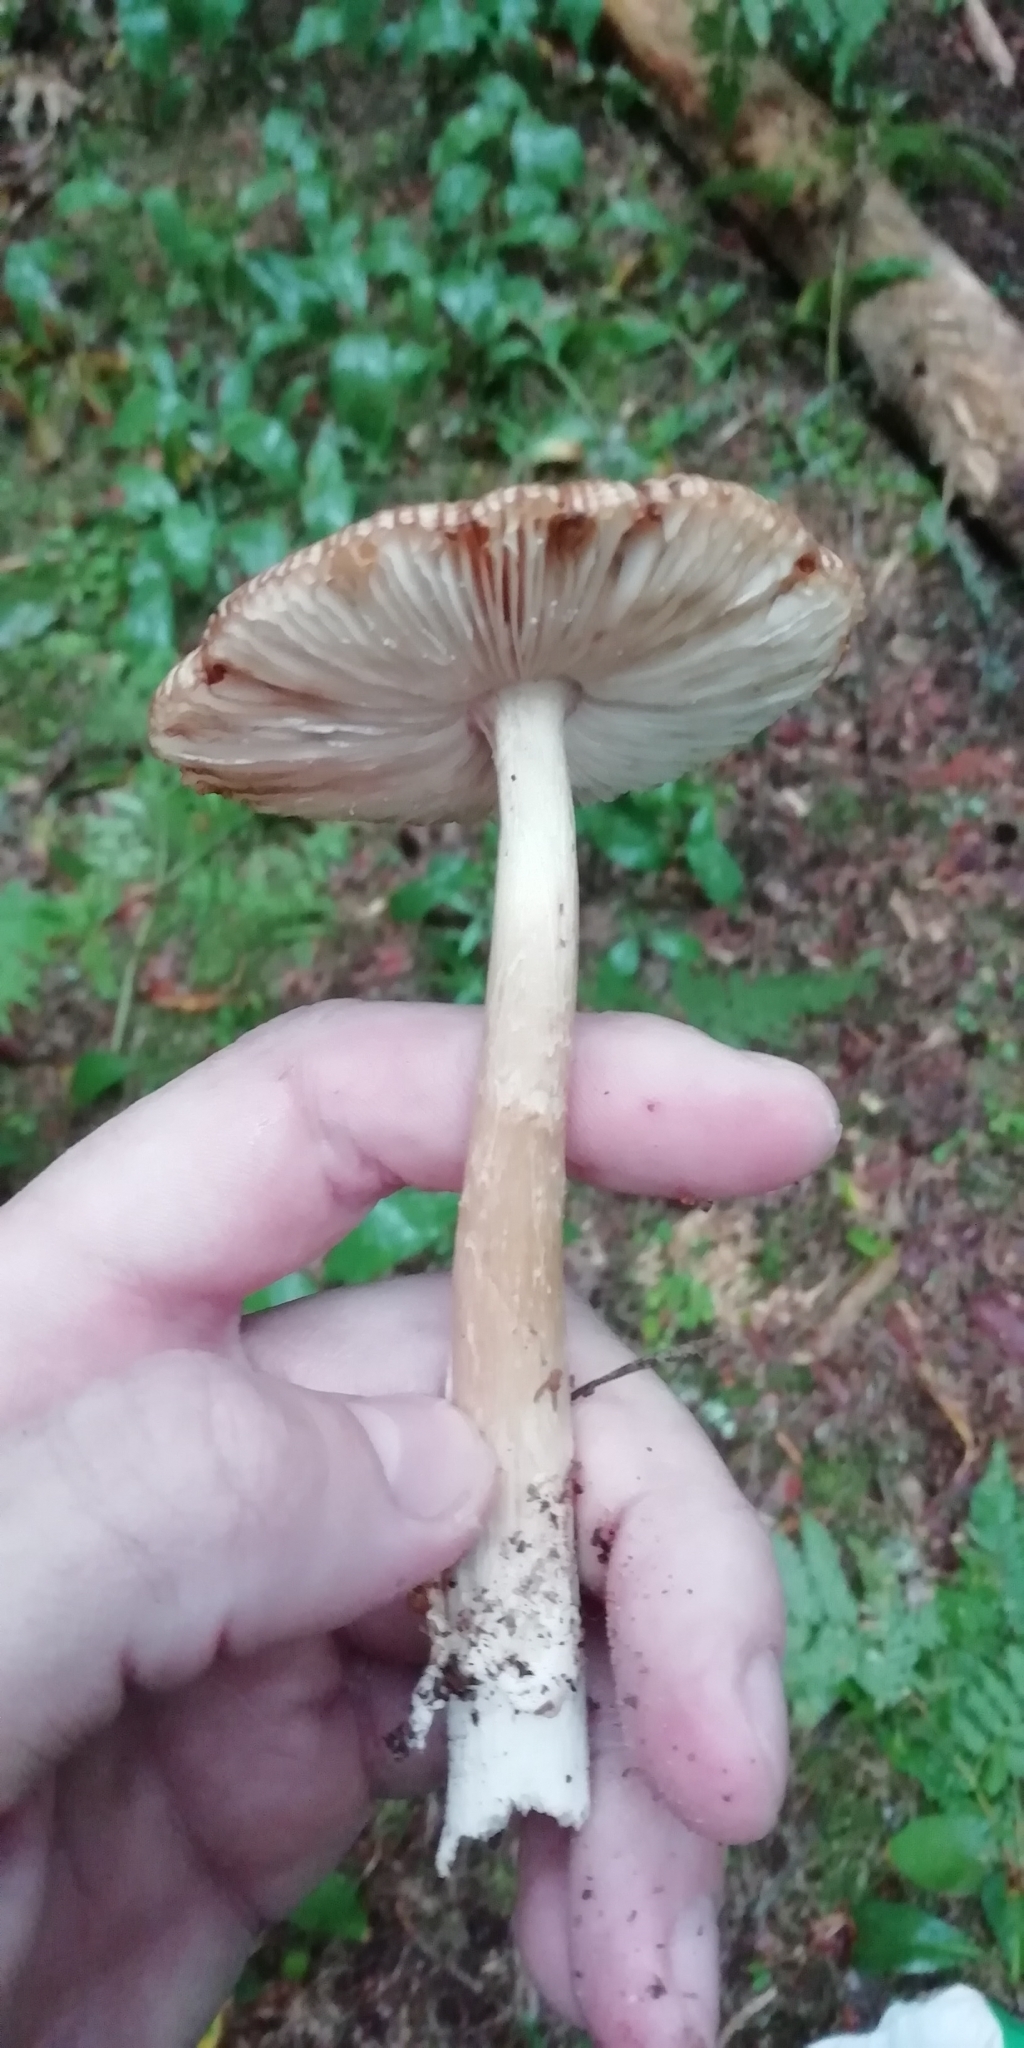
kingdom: Fungi
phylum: Basidiomycota
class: Agaricomycetes
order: Agaricales
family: Amanitaceae
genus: Amanita
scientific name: Amanita fulva
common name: Tawny grisette
